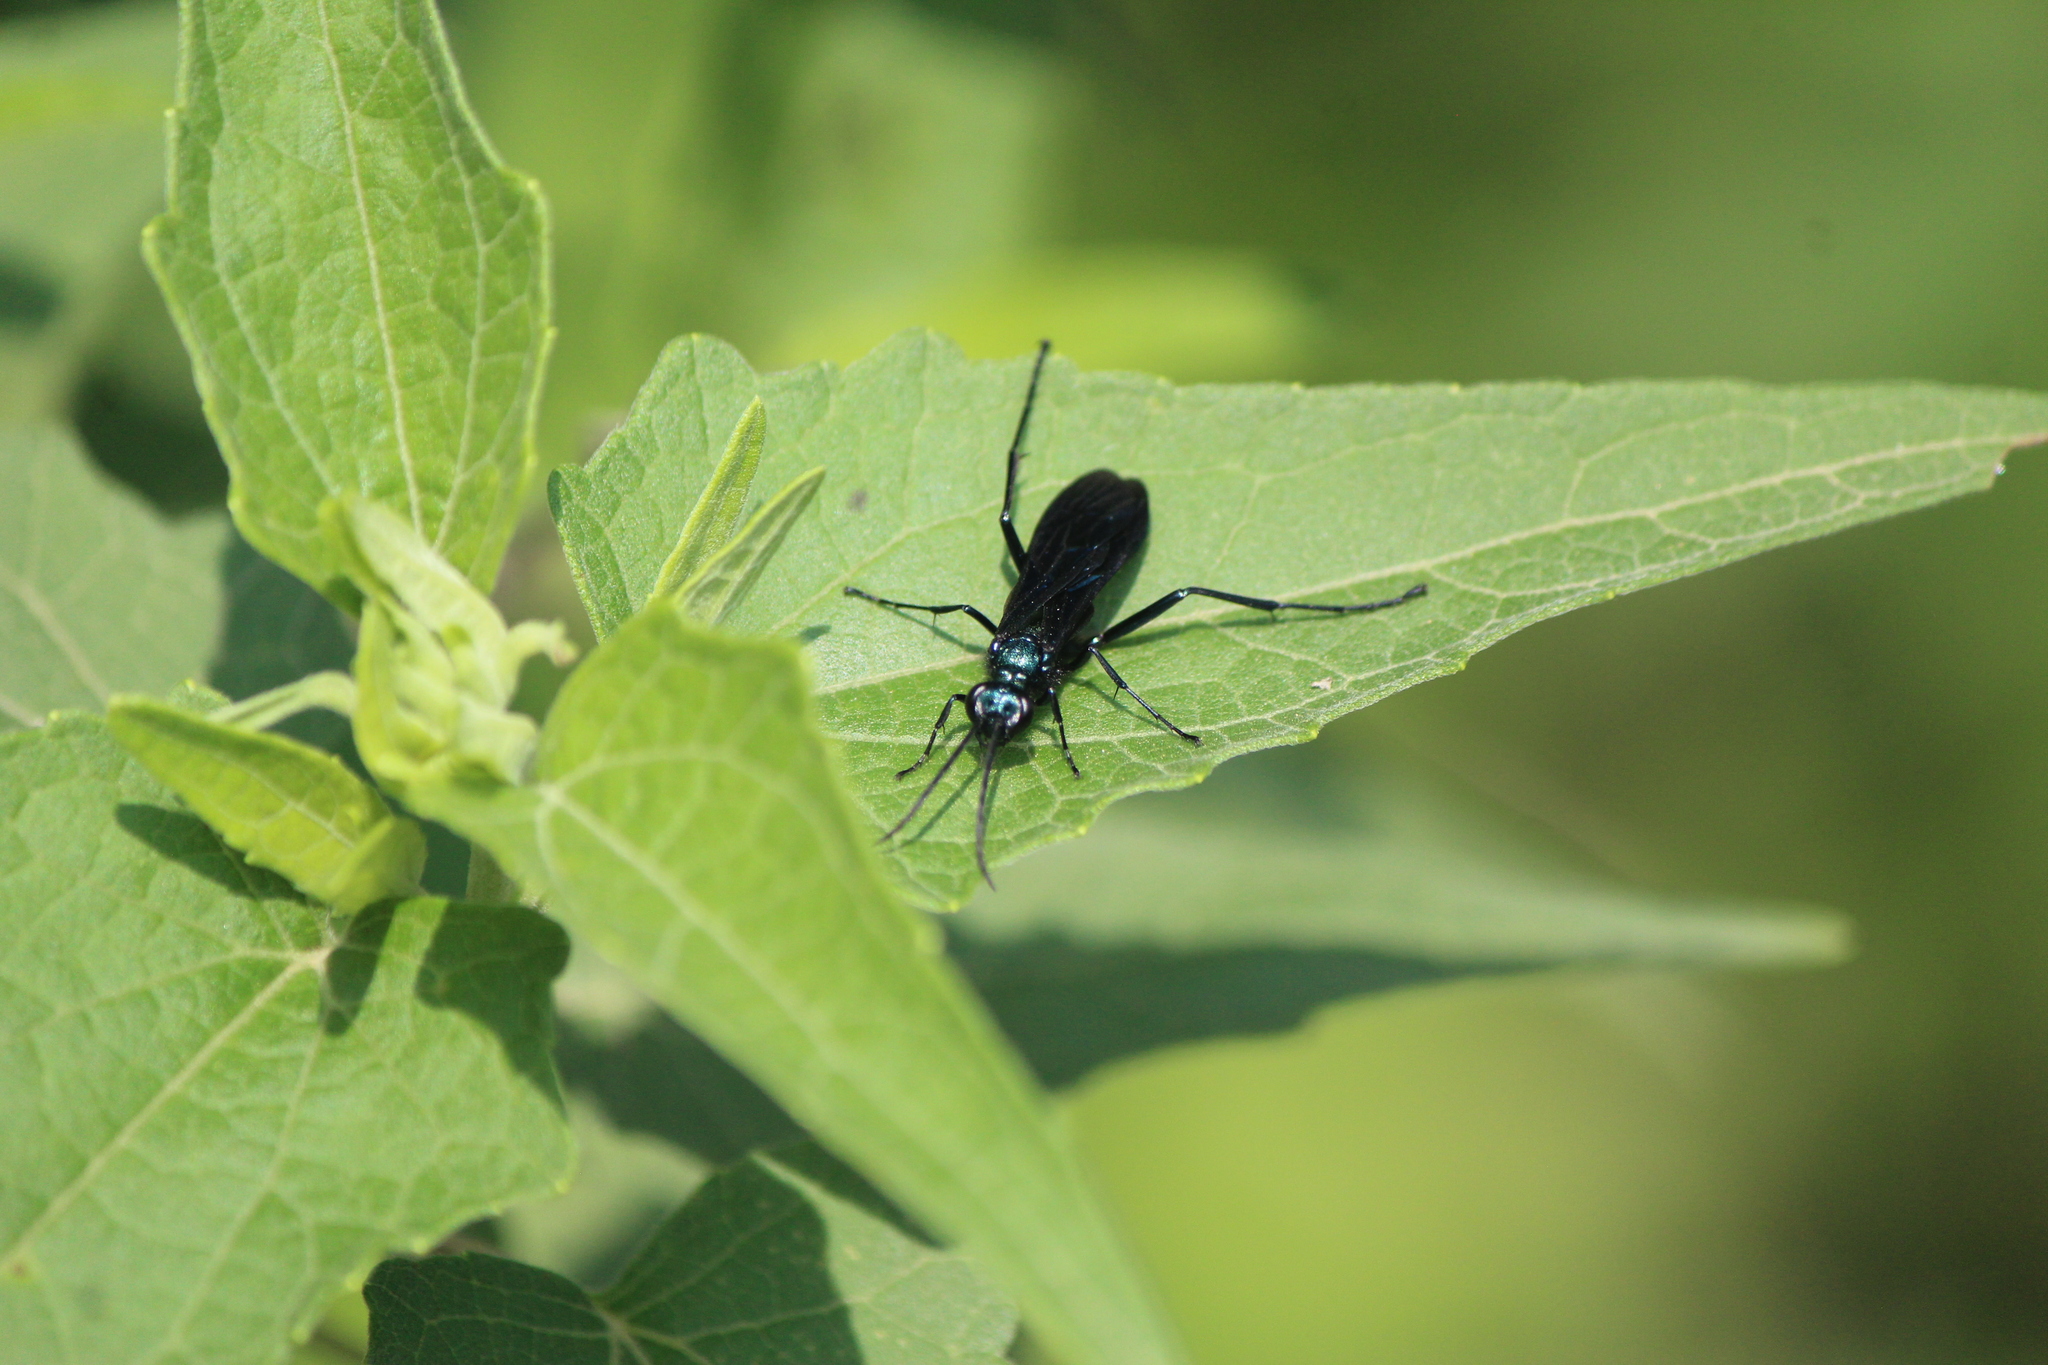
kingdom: Animalia
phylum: Arthropoda
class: Insecta
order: Hymenoptera
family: Sphecidae
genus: Chalybion
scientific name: Chalybion californicum
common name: Mud dauber
